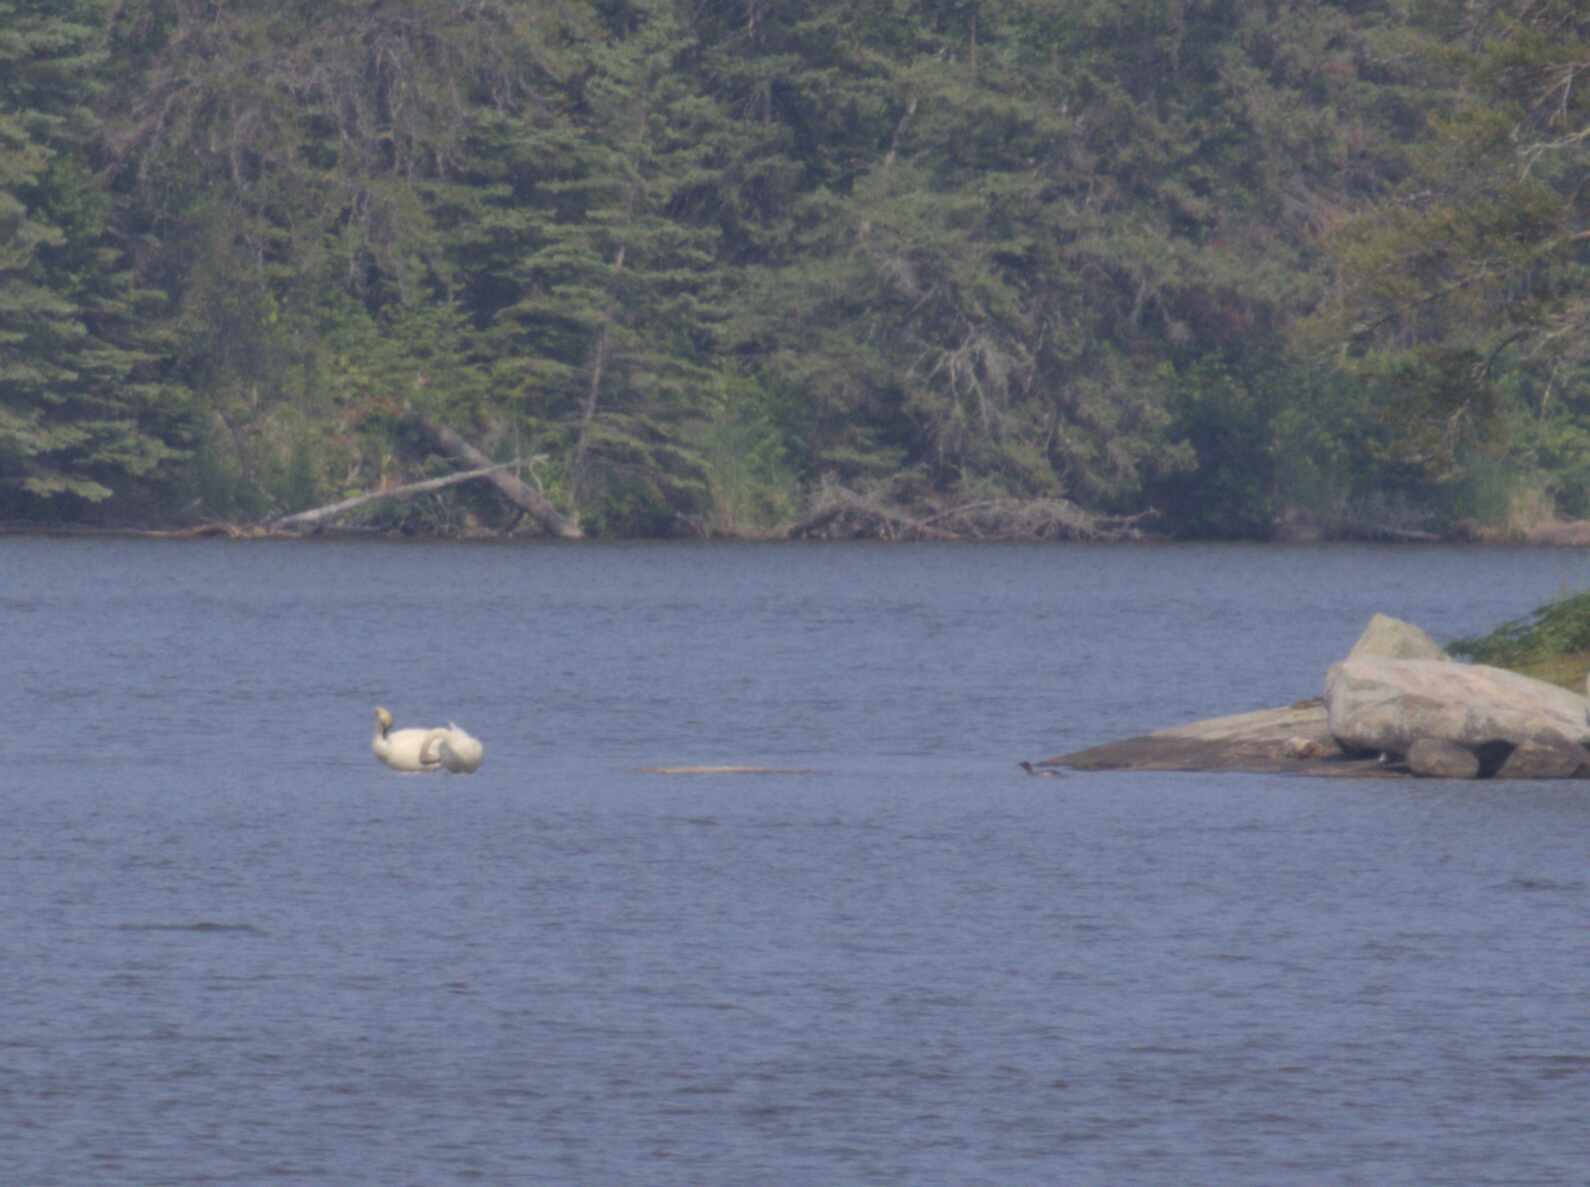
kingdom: Animalia
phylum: Chordata
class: Aves
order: Anseriformes
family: Anatidae
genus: Cygnus
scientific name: Cygnus buccinator
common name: Trumpeter swan
